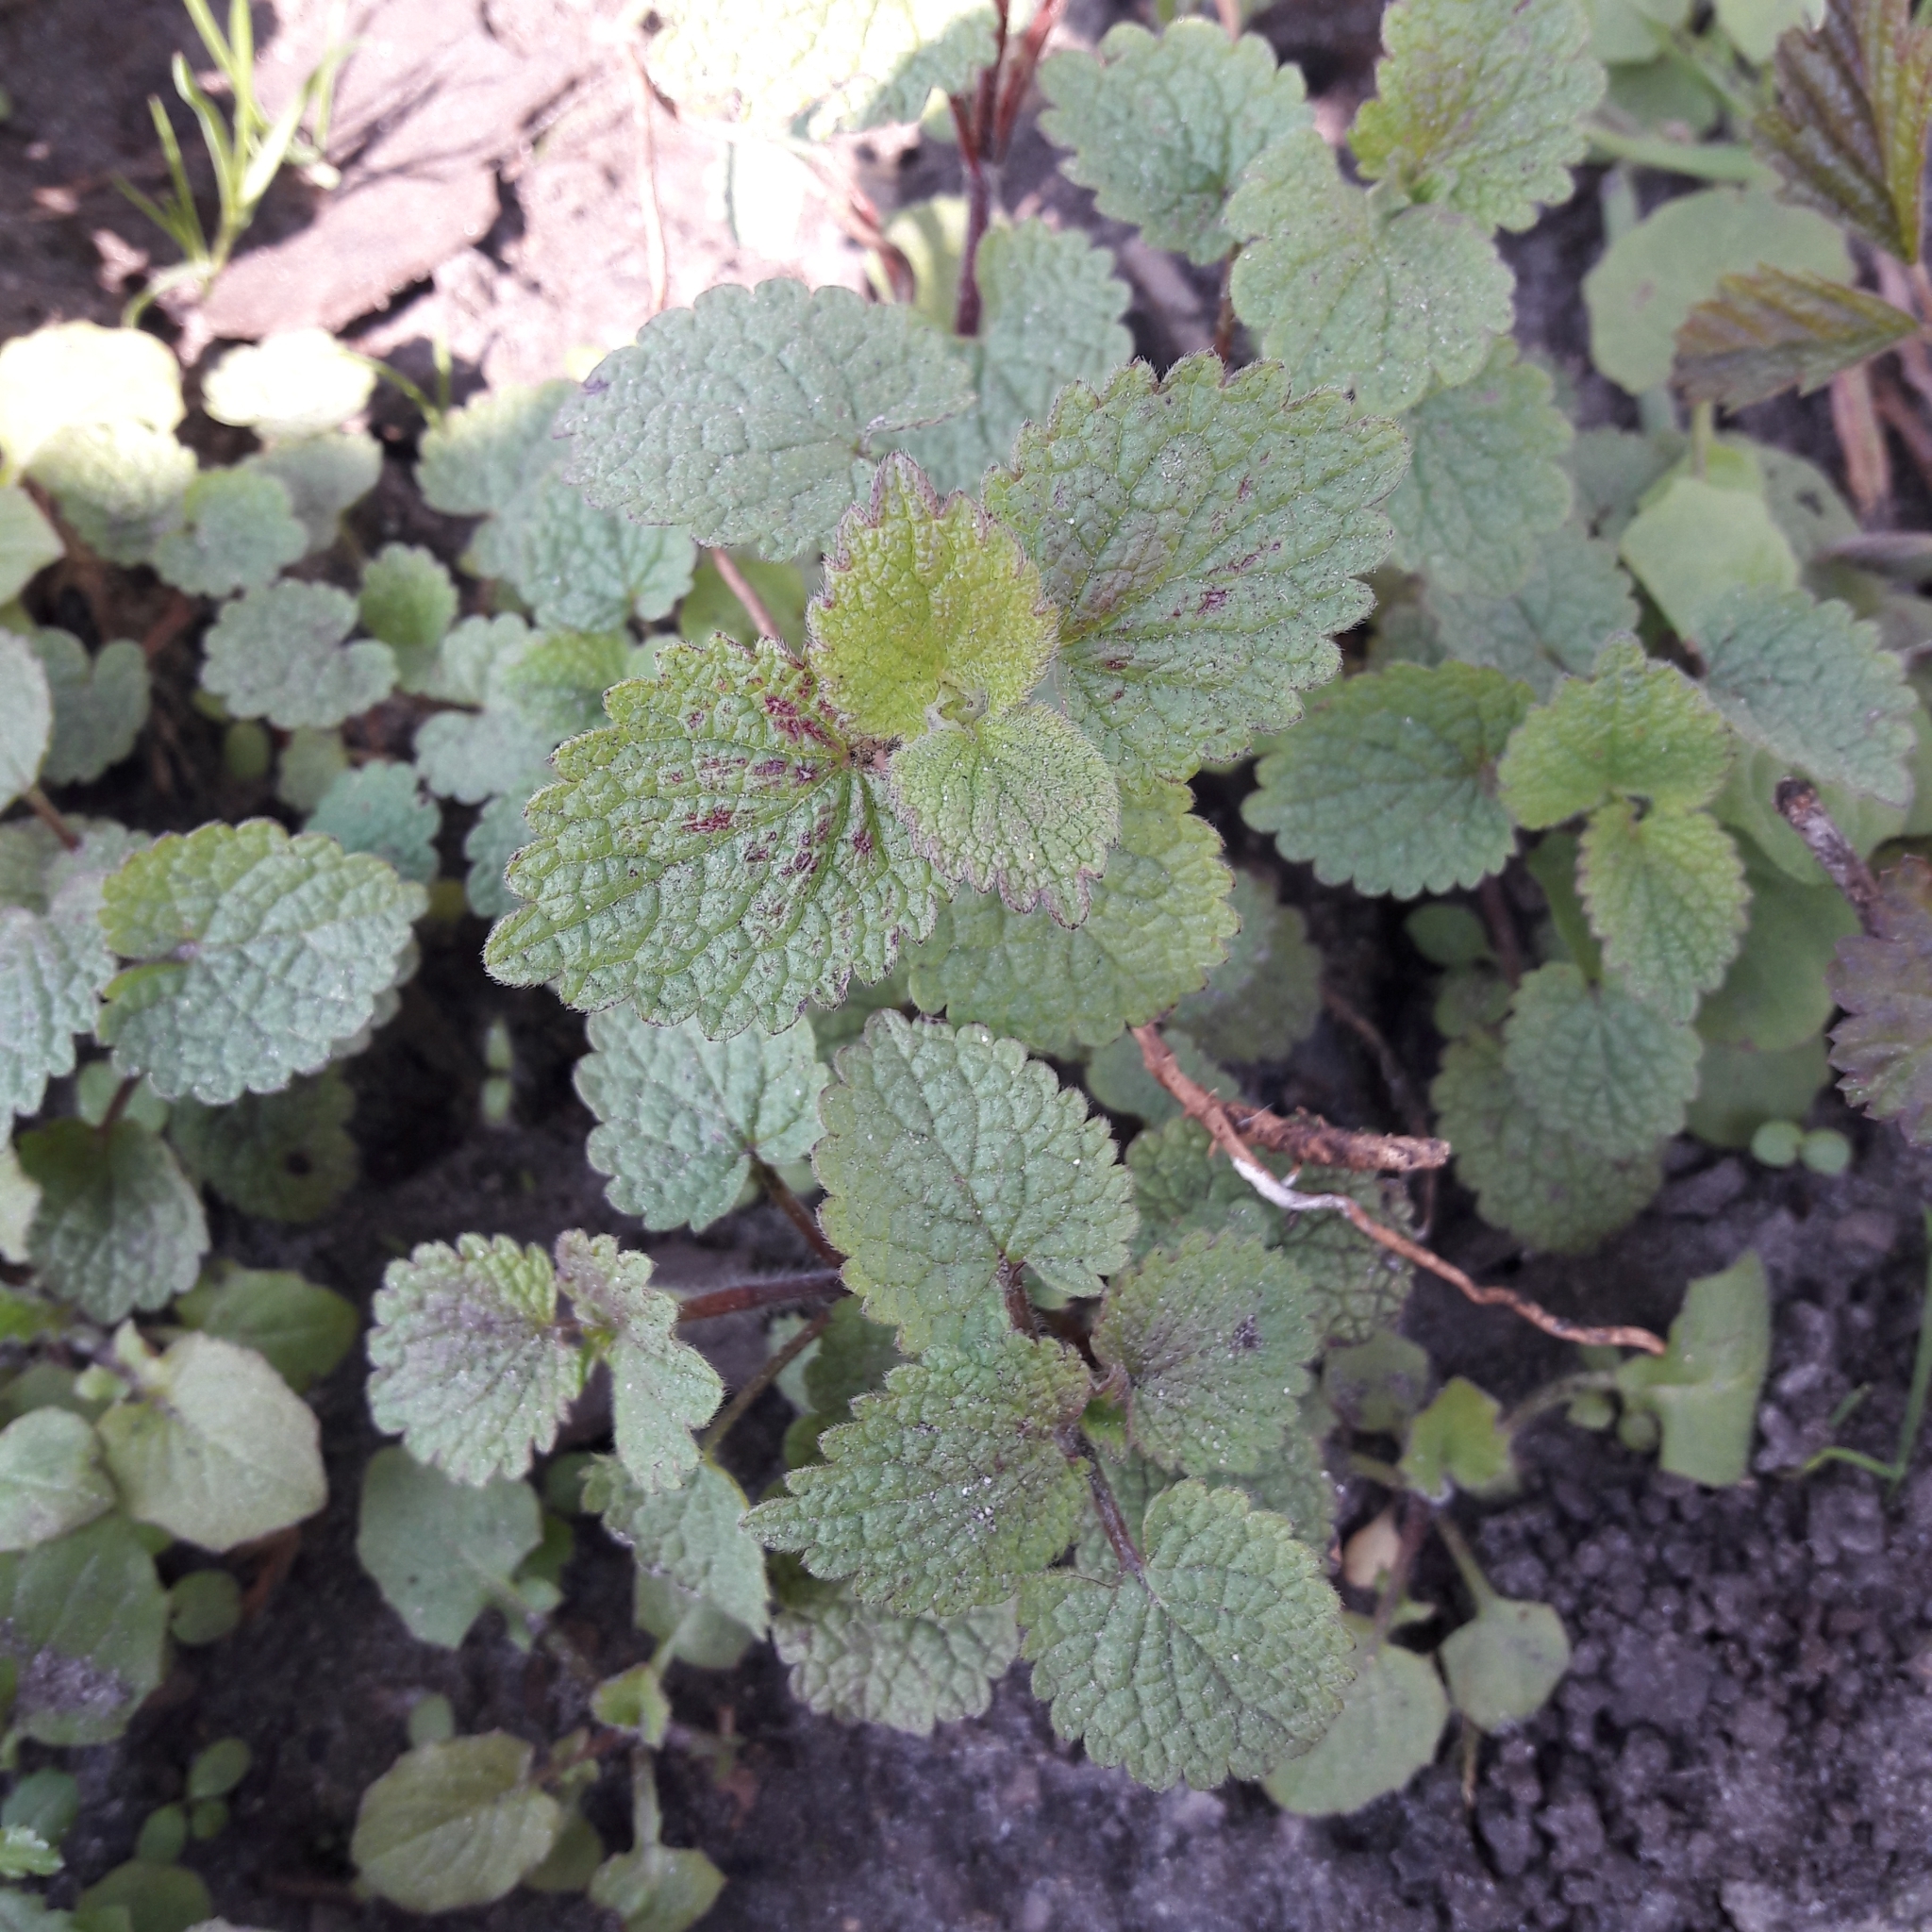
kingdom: Plantae
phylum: Tracheophyta
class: Magnoliopsida
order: Lamiales
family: Lamiaceae
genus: Lamium
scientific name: Lamium purpureum
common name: Red dead-nettle
